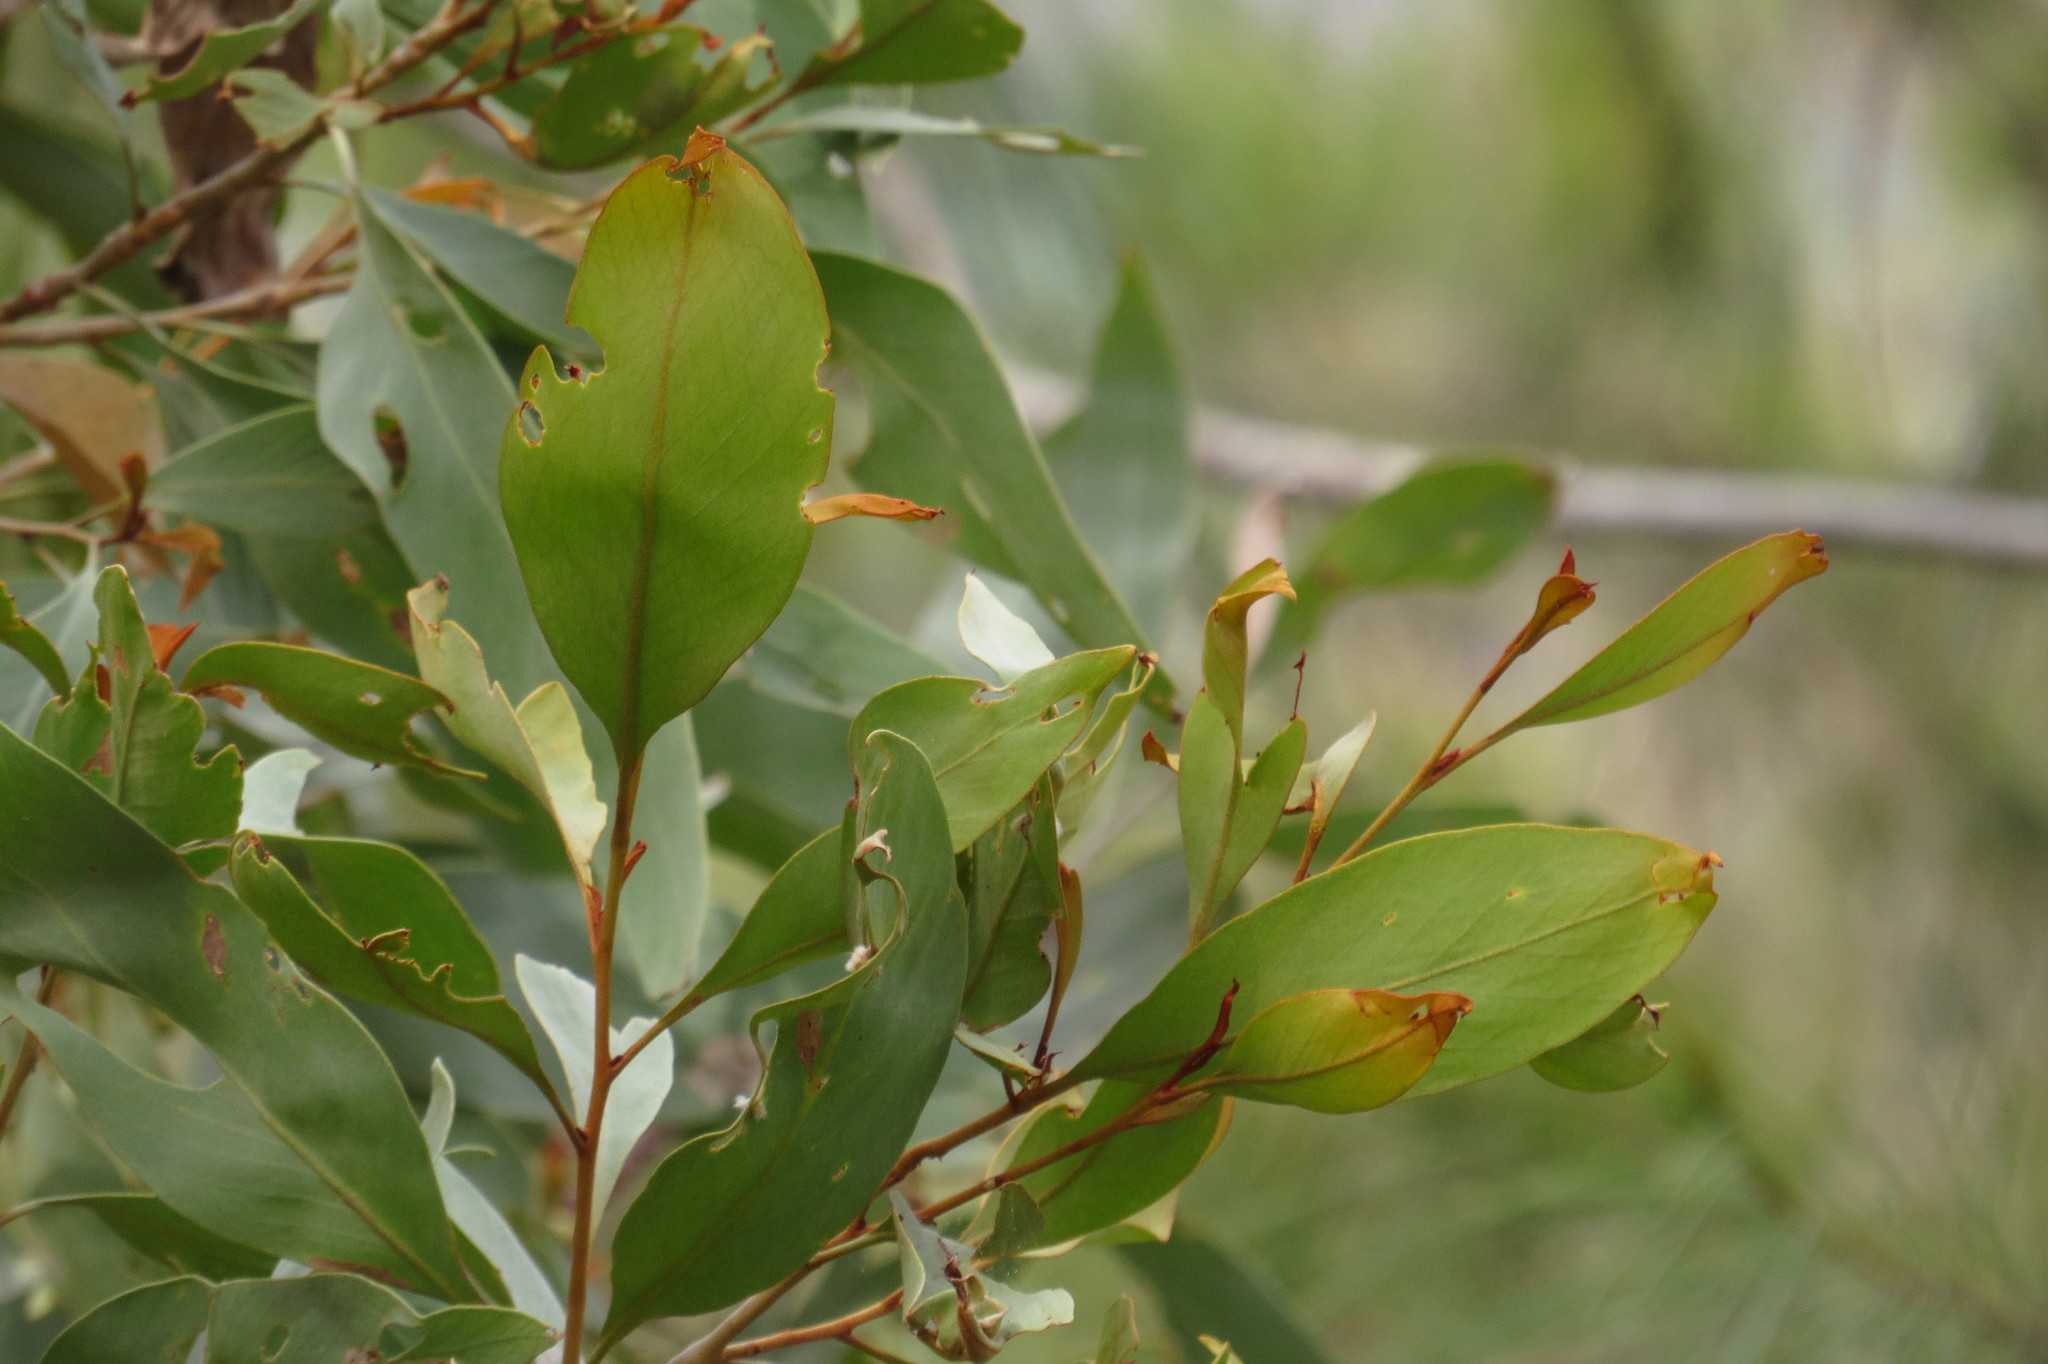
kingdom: Plantae
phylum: Tracheophyta
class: Magnoliopsida
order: Proteales
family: Proteaceae
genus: Grevillea
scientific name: Grevillea glauca
